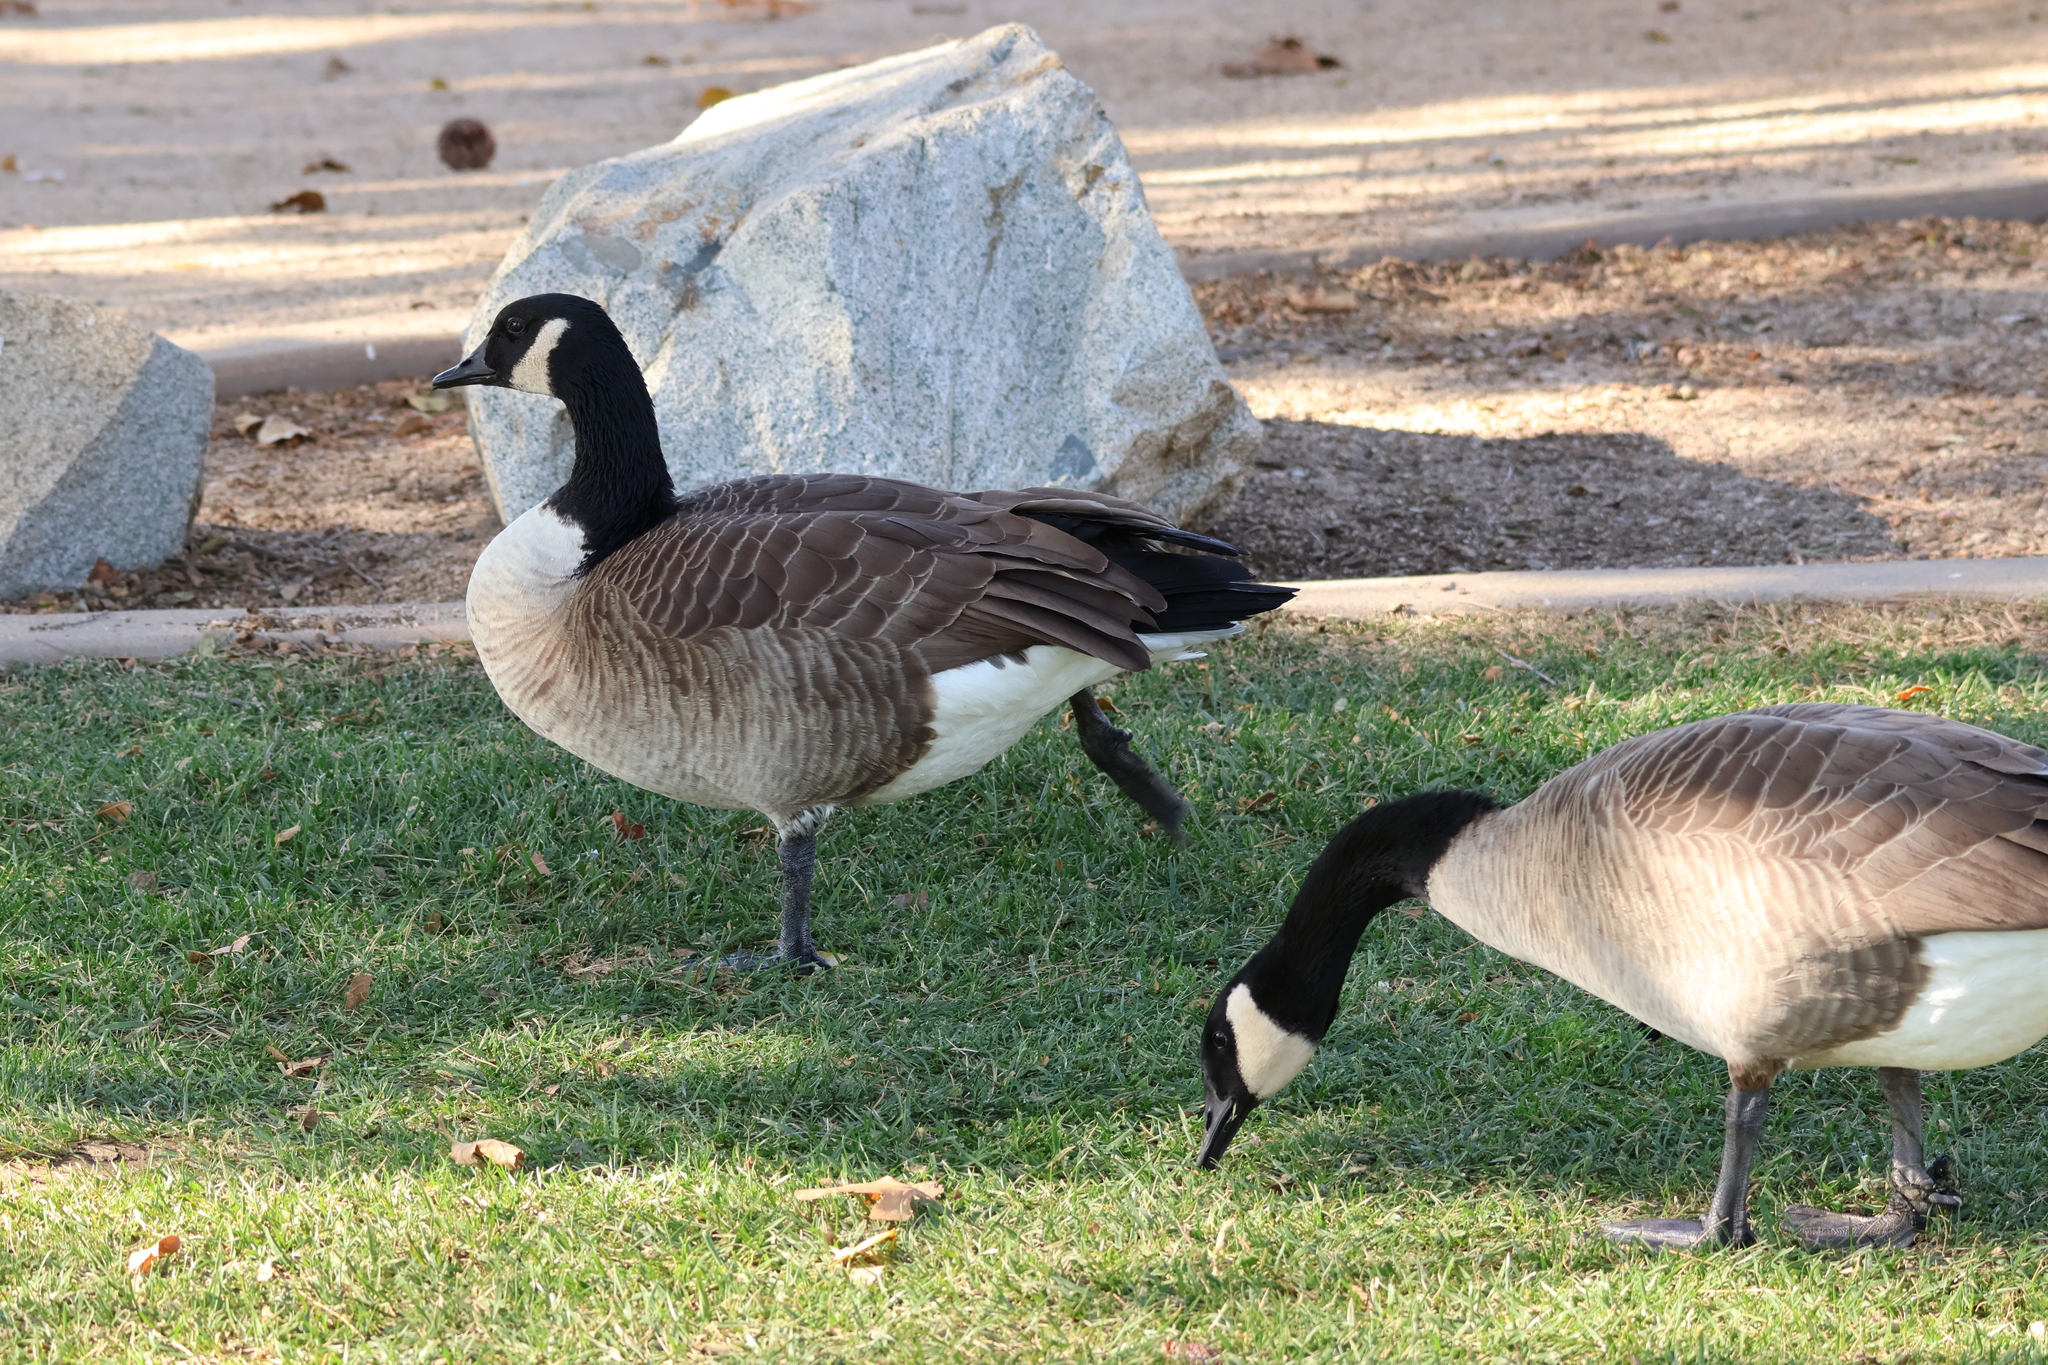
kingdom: Animalia
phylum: Chordata
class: Aves
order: Anseriformes
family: Anatidae
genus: Branta
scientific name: Branta canadensis
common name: Canada goose
